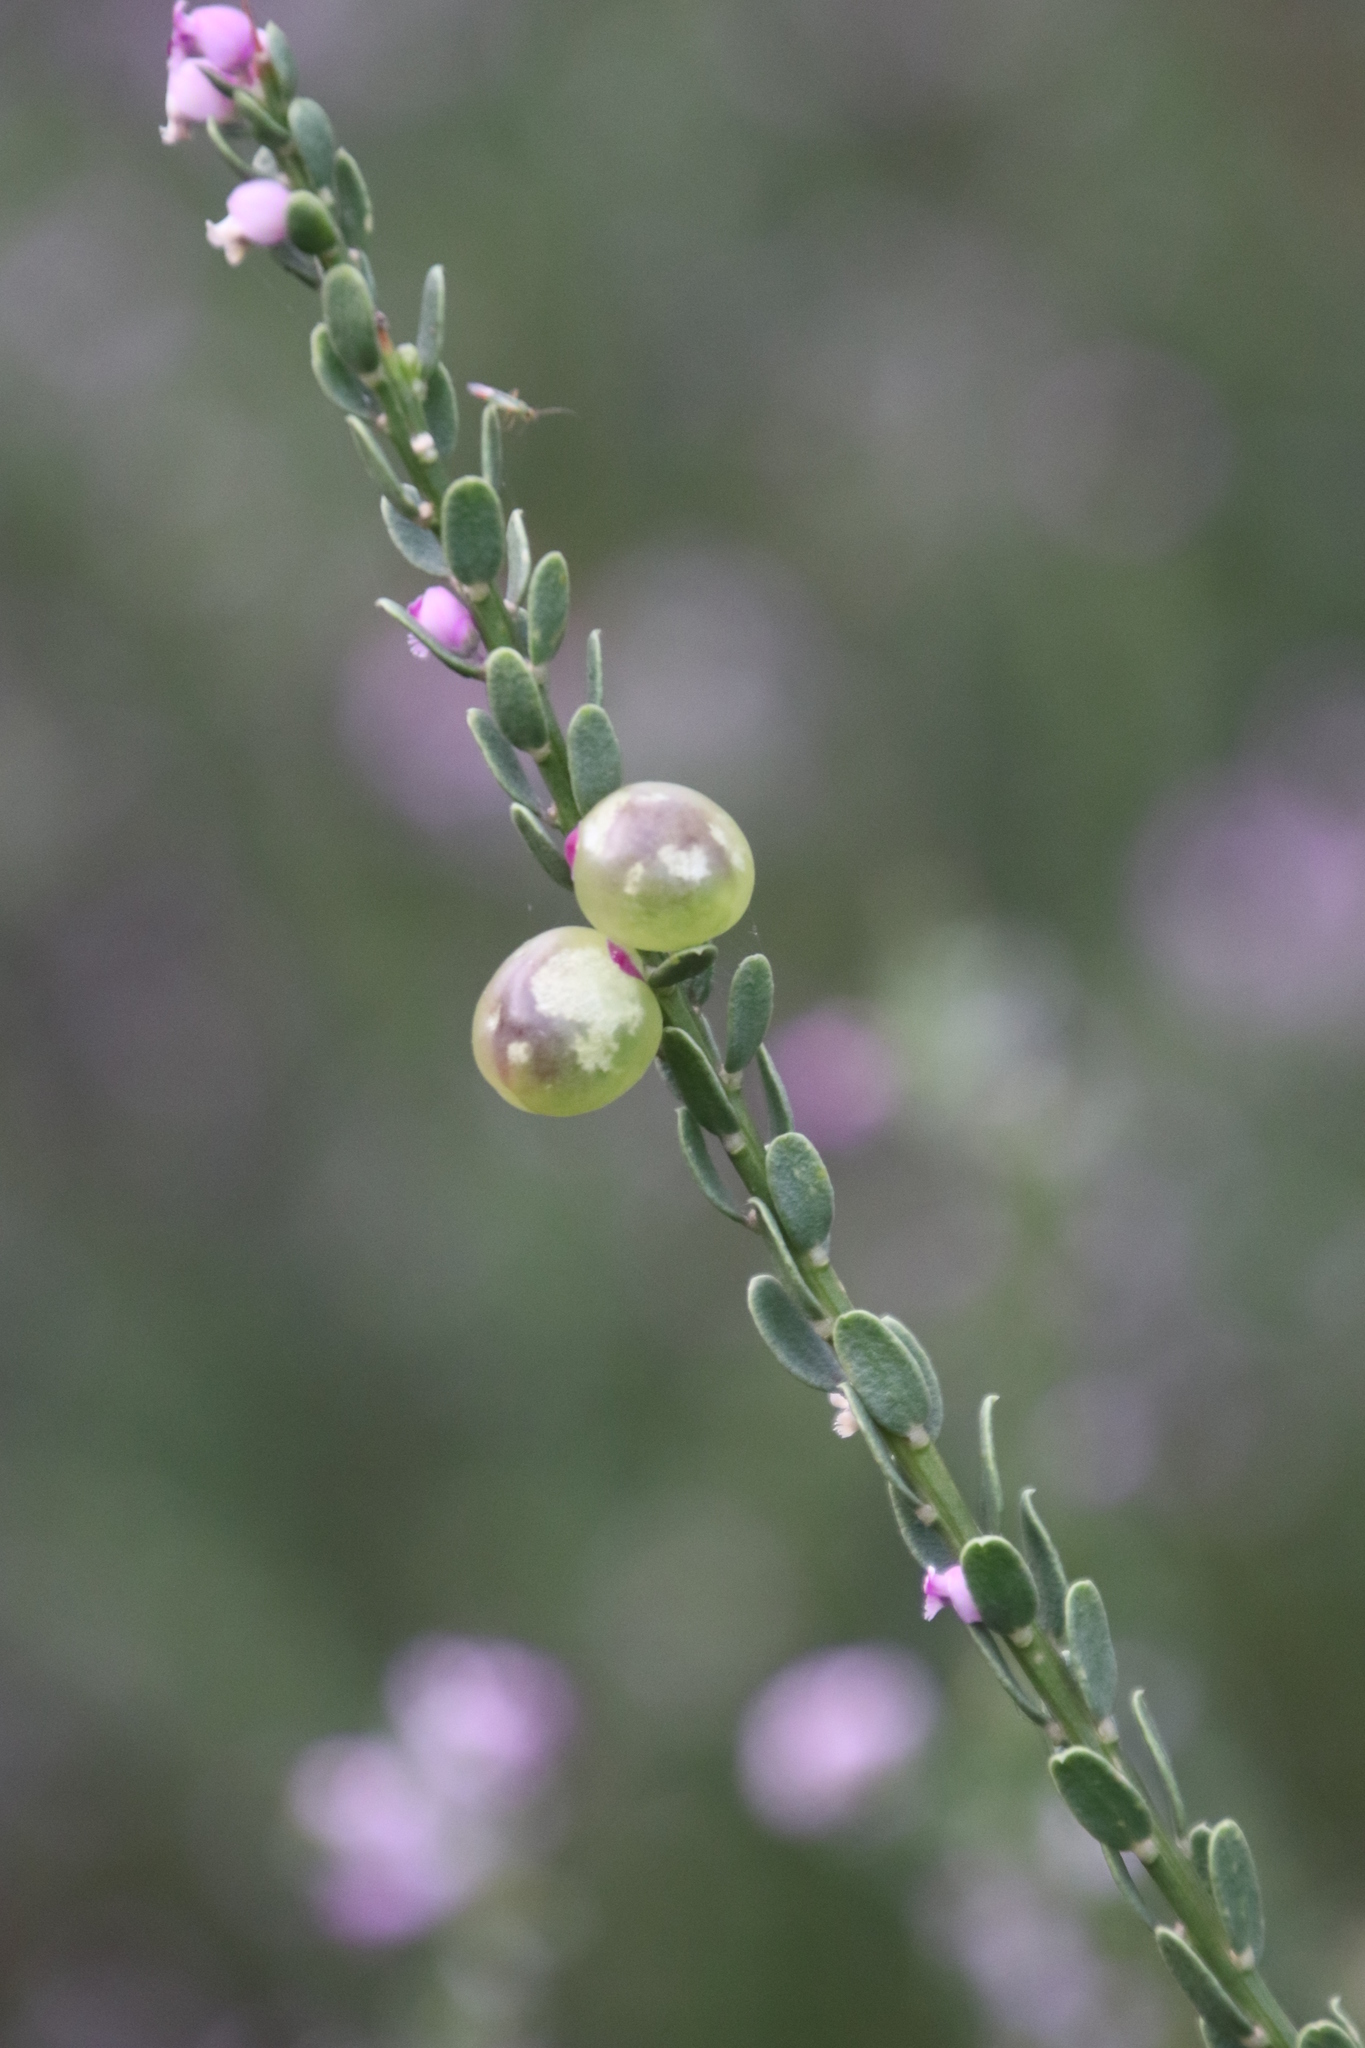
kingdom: Plantae
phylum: Tracheophyta
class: Magnoliopsida
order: Fabales
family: Polygalaceae
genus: Muraltia
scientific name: Muraltia spinosa
